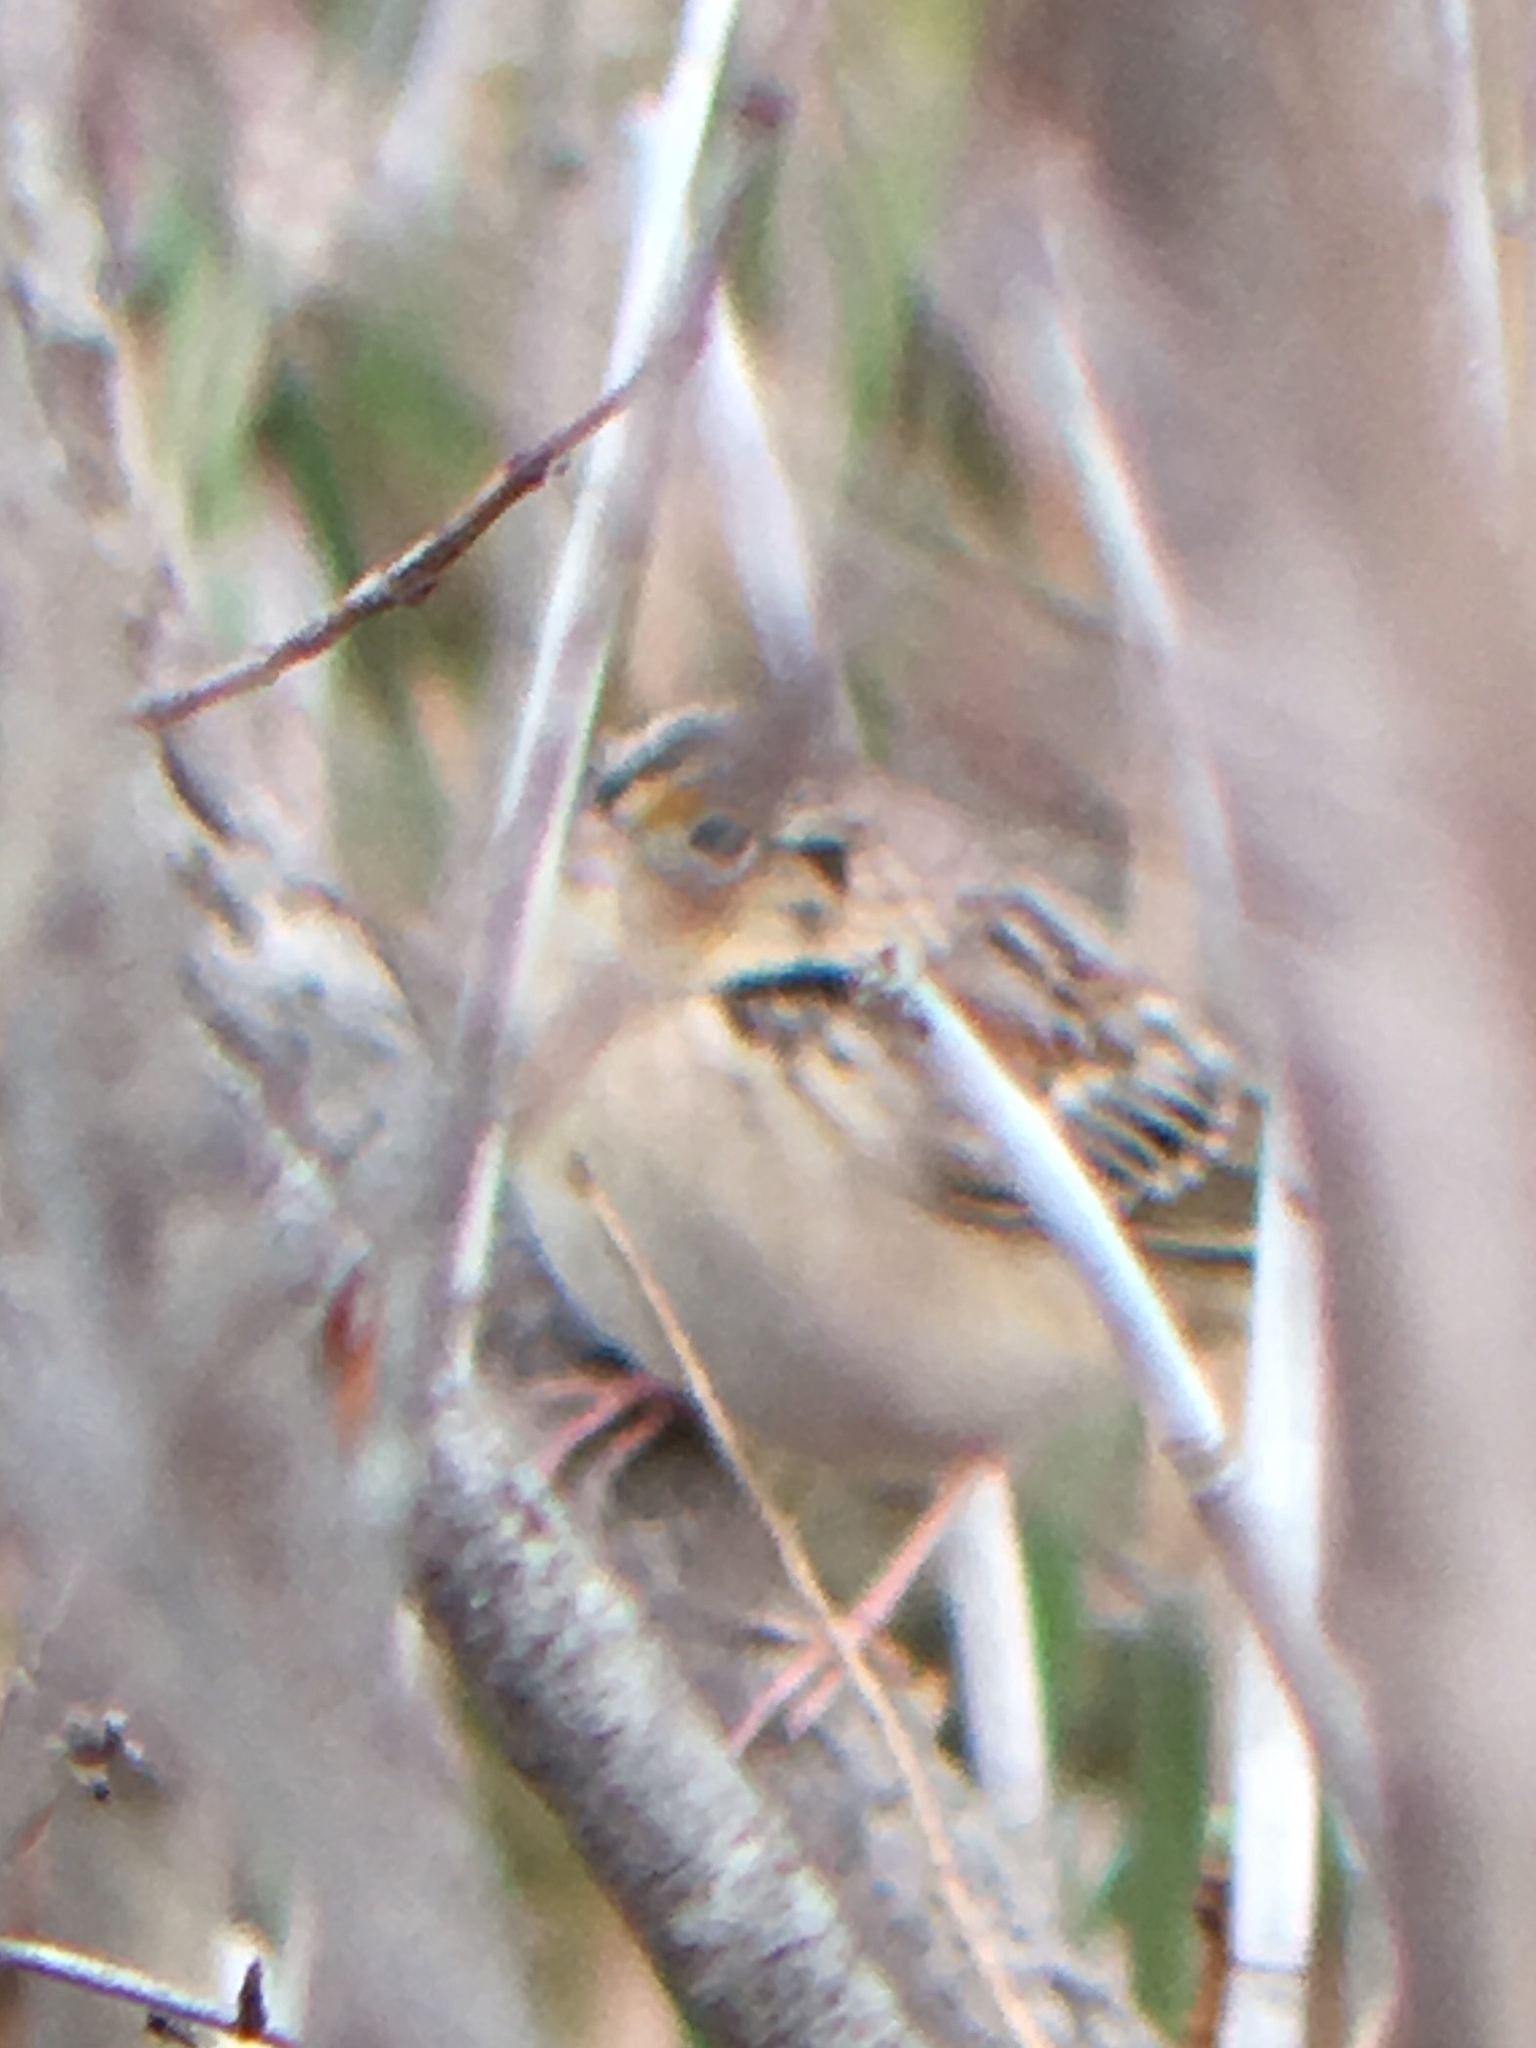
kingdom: Animalia
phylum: Chordata
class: Aves
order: Passeriformes
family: Passerellidae
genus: Ammodramus
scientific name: Ammodramus savannarum
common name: Grasshopper sparrow
